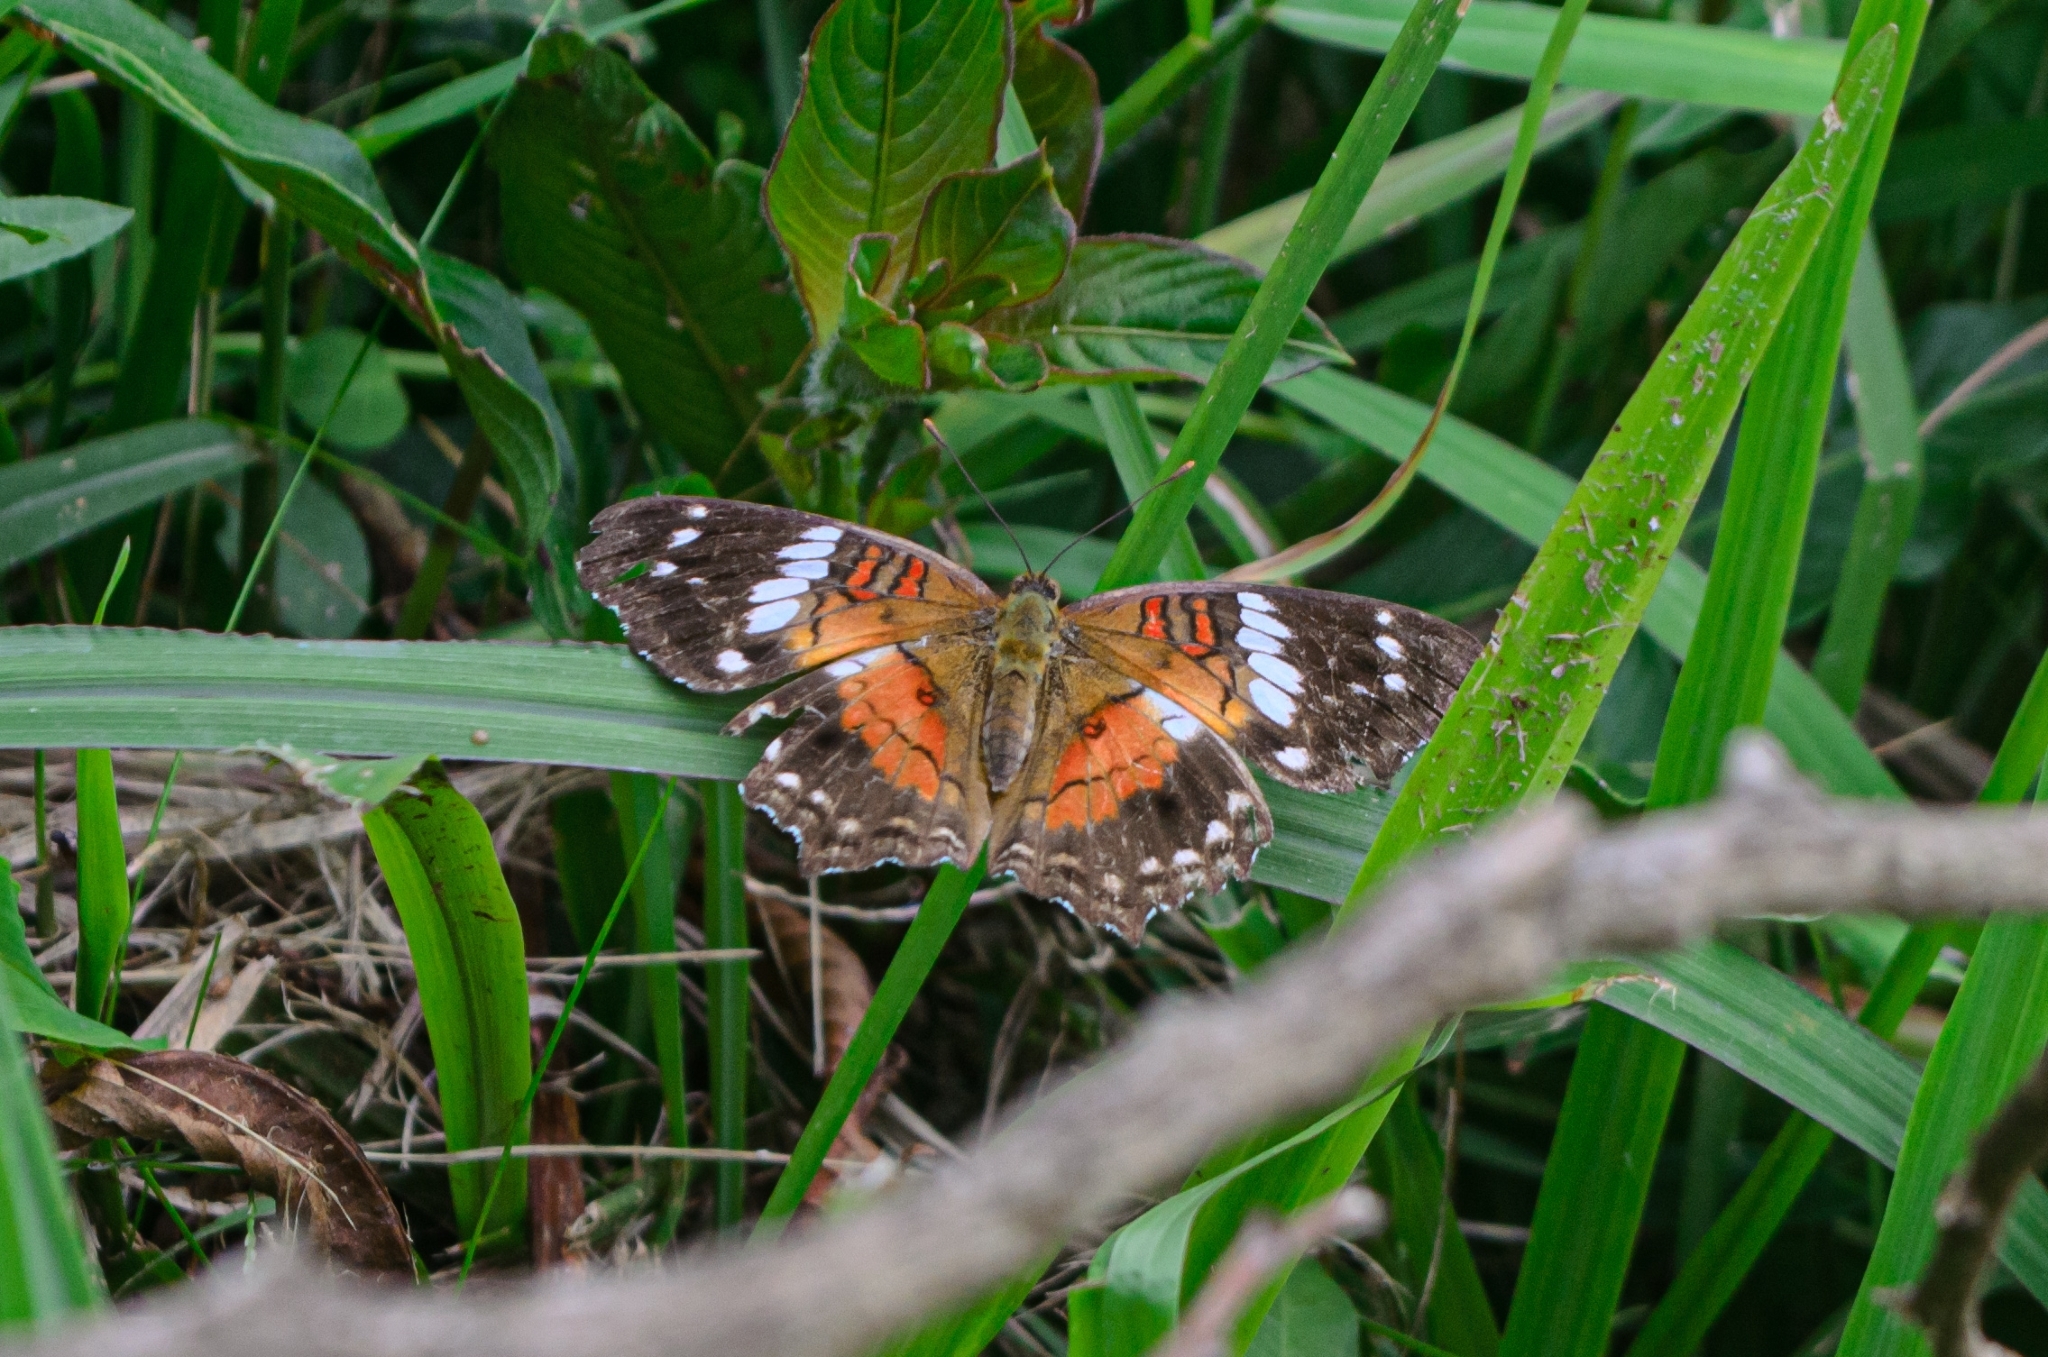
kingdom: Animalia
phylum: Arthropoda
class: Insecta
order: Lepidoptera
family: Nymphalidae
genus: Anartia
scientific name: Anartia amathea
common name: Red peacock
